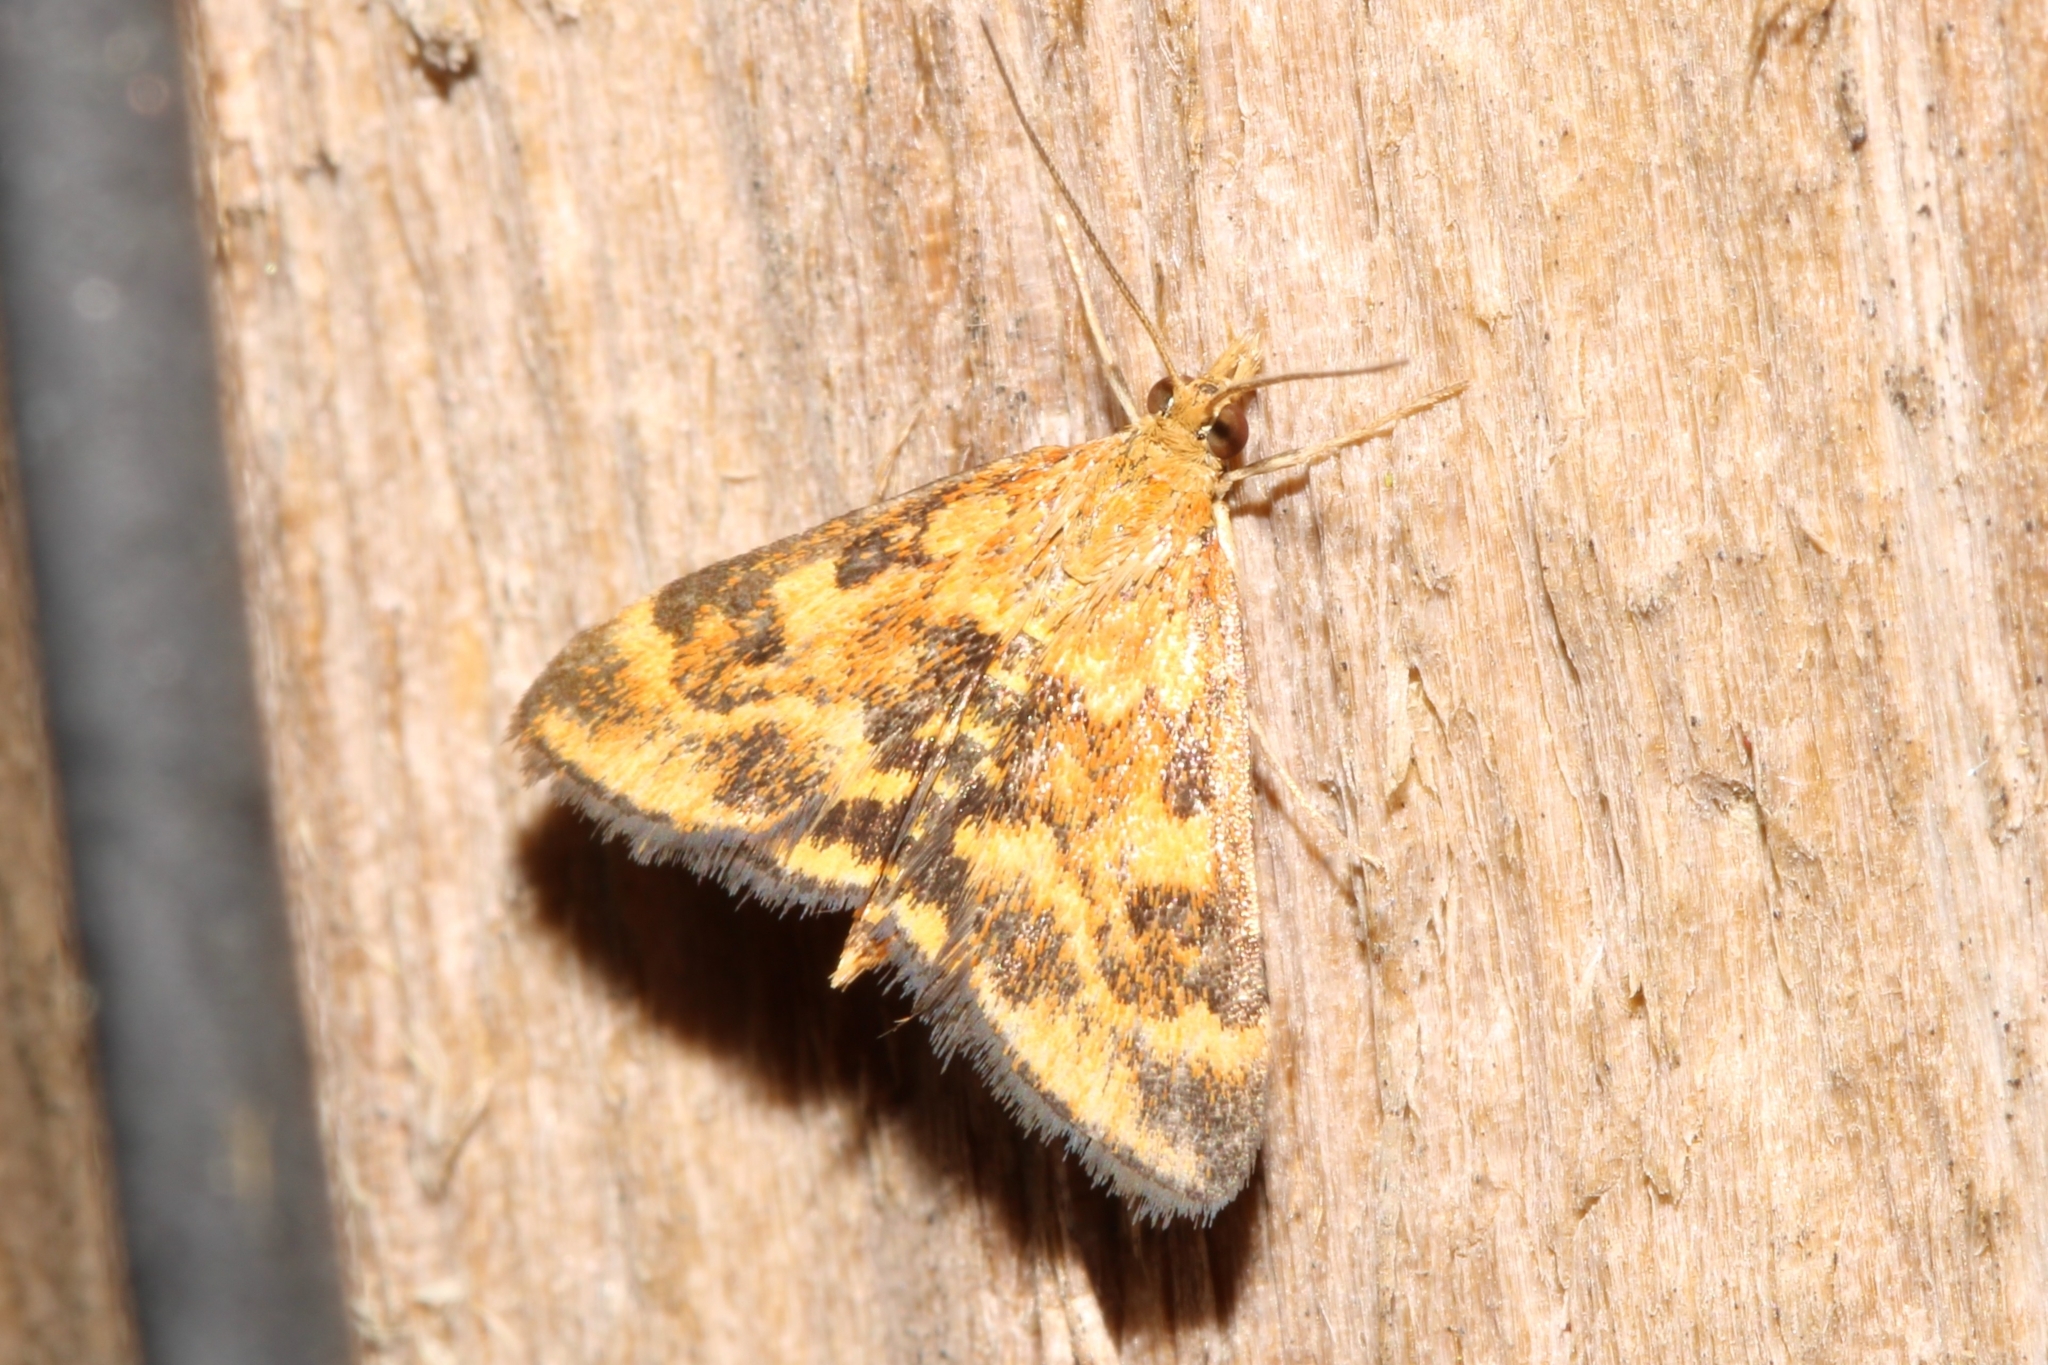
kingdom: Animalia
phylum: Arthropoda
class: Insecta
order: Lepidoptera
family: Crambidae
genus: Pyrausta
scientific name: Pyrausta subsequalis
